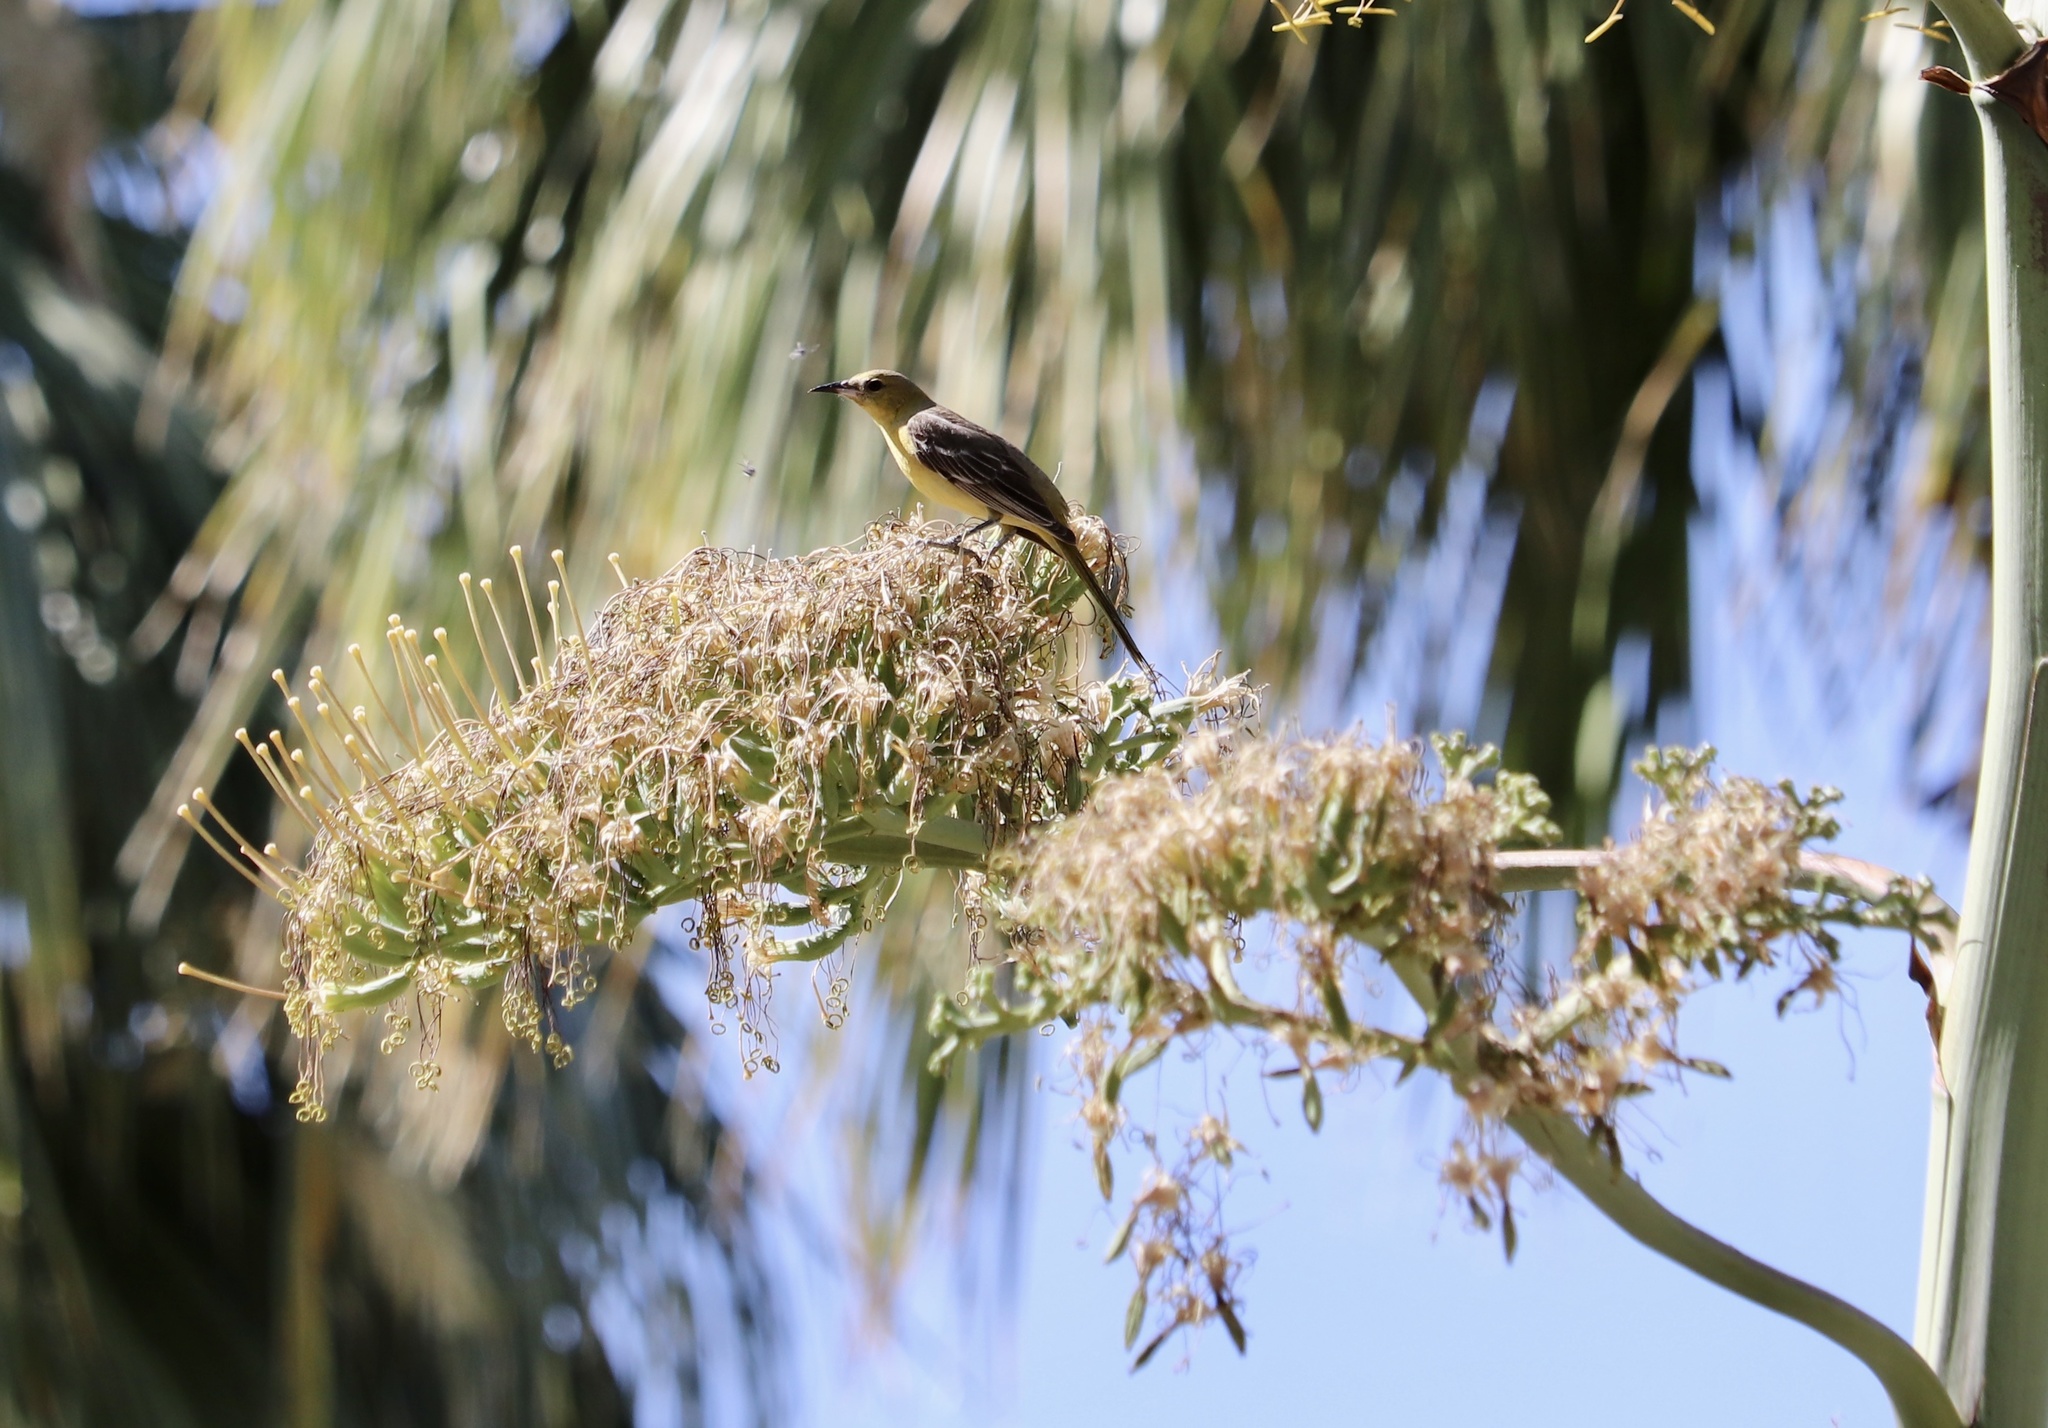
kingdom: Animalia
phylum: Chordata
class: Aves
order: Passeriformes
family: Icteridae
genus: Icterus
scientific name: Icterus parisorum
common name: Scott's oriole
